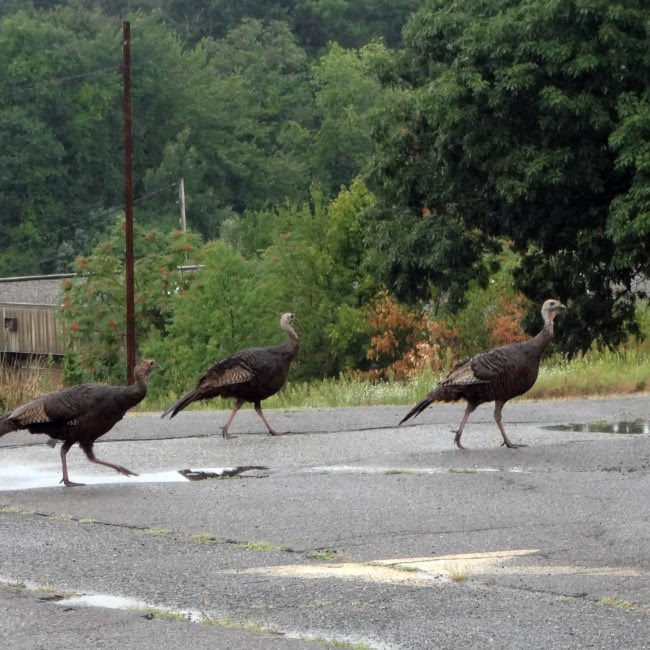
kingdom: Animalia
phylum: Chordata
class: Aves
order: Galliformes
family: Phasianidae
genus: Meleagris
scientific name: Meleagris gallopavo
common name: Wild turkey
